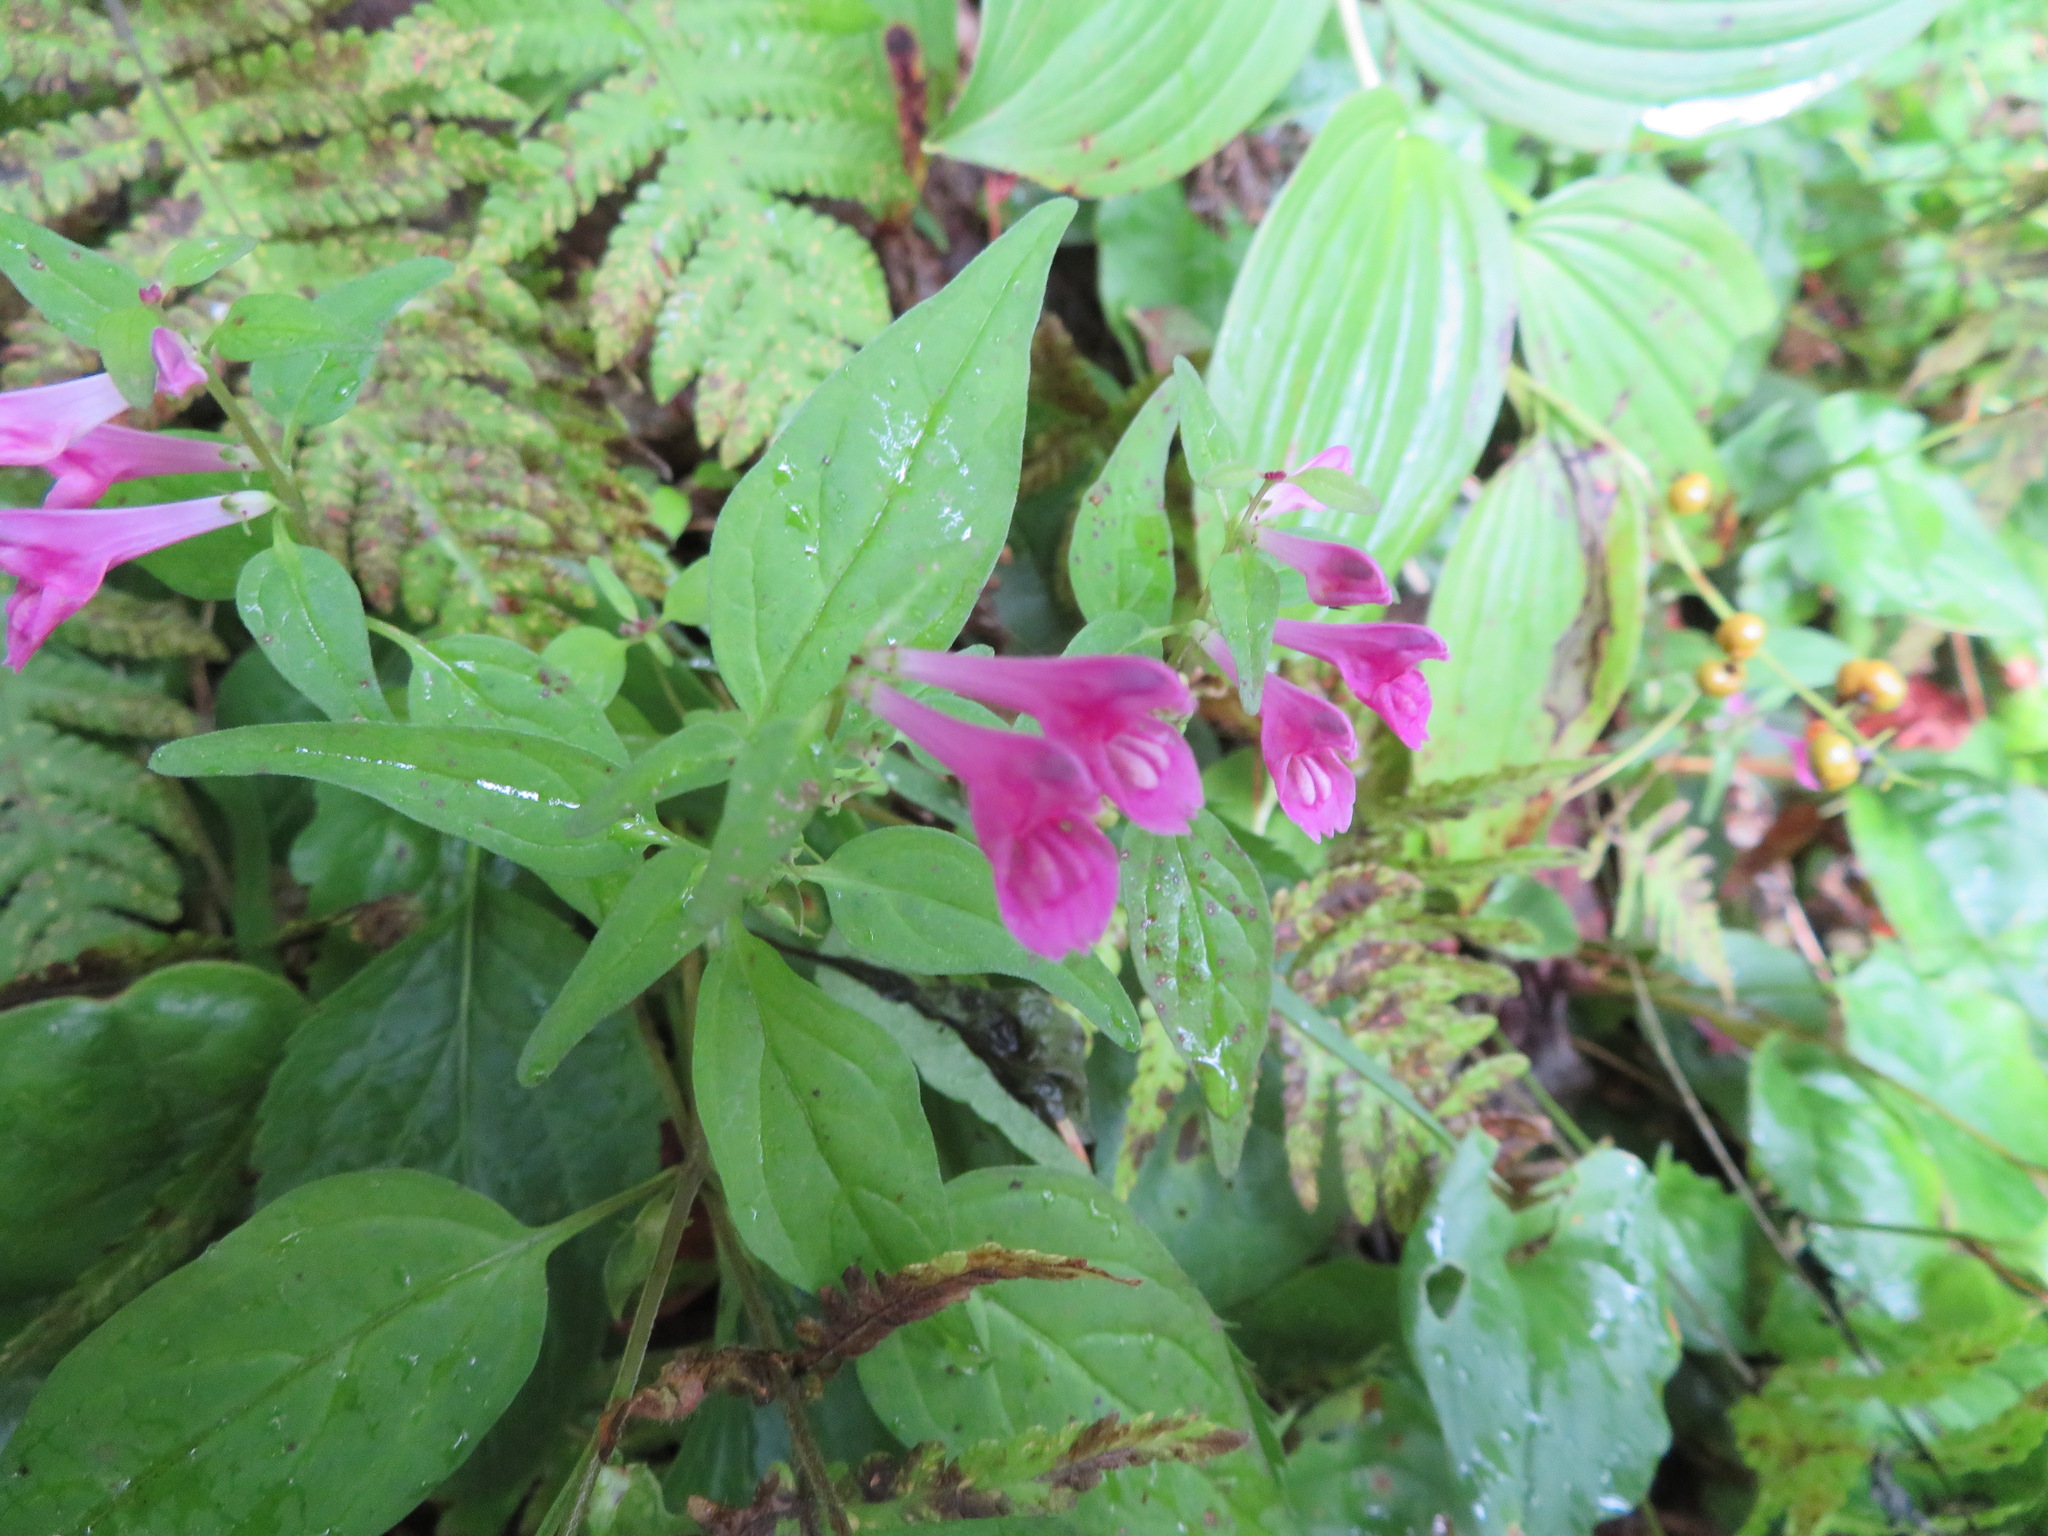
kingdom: Plantae
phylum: Tracheophyta
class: Magnoliopsida
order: Lamiales
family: Orobanchaceae
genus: Melampyrum
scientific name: Melampyrum roseum
